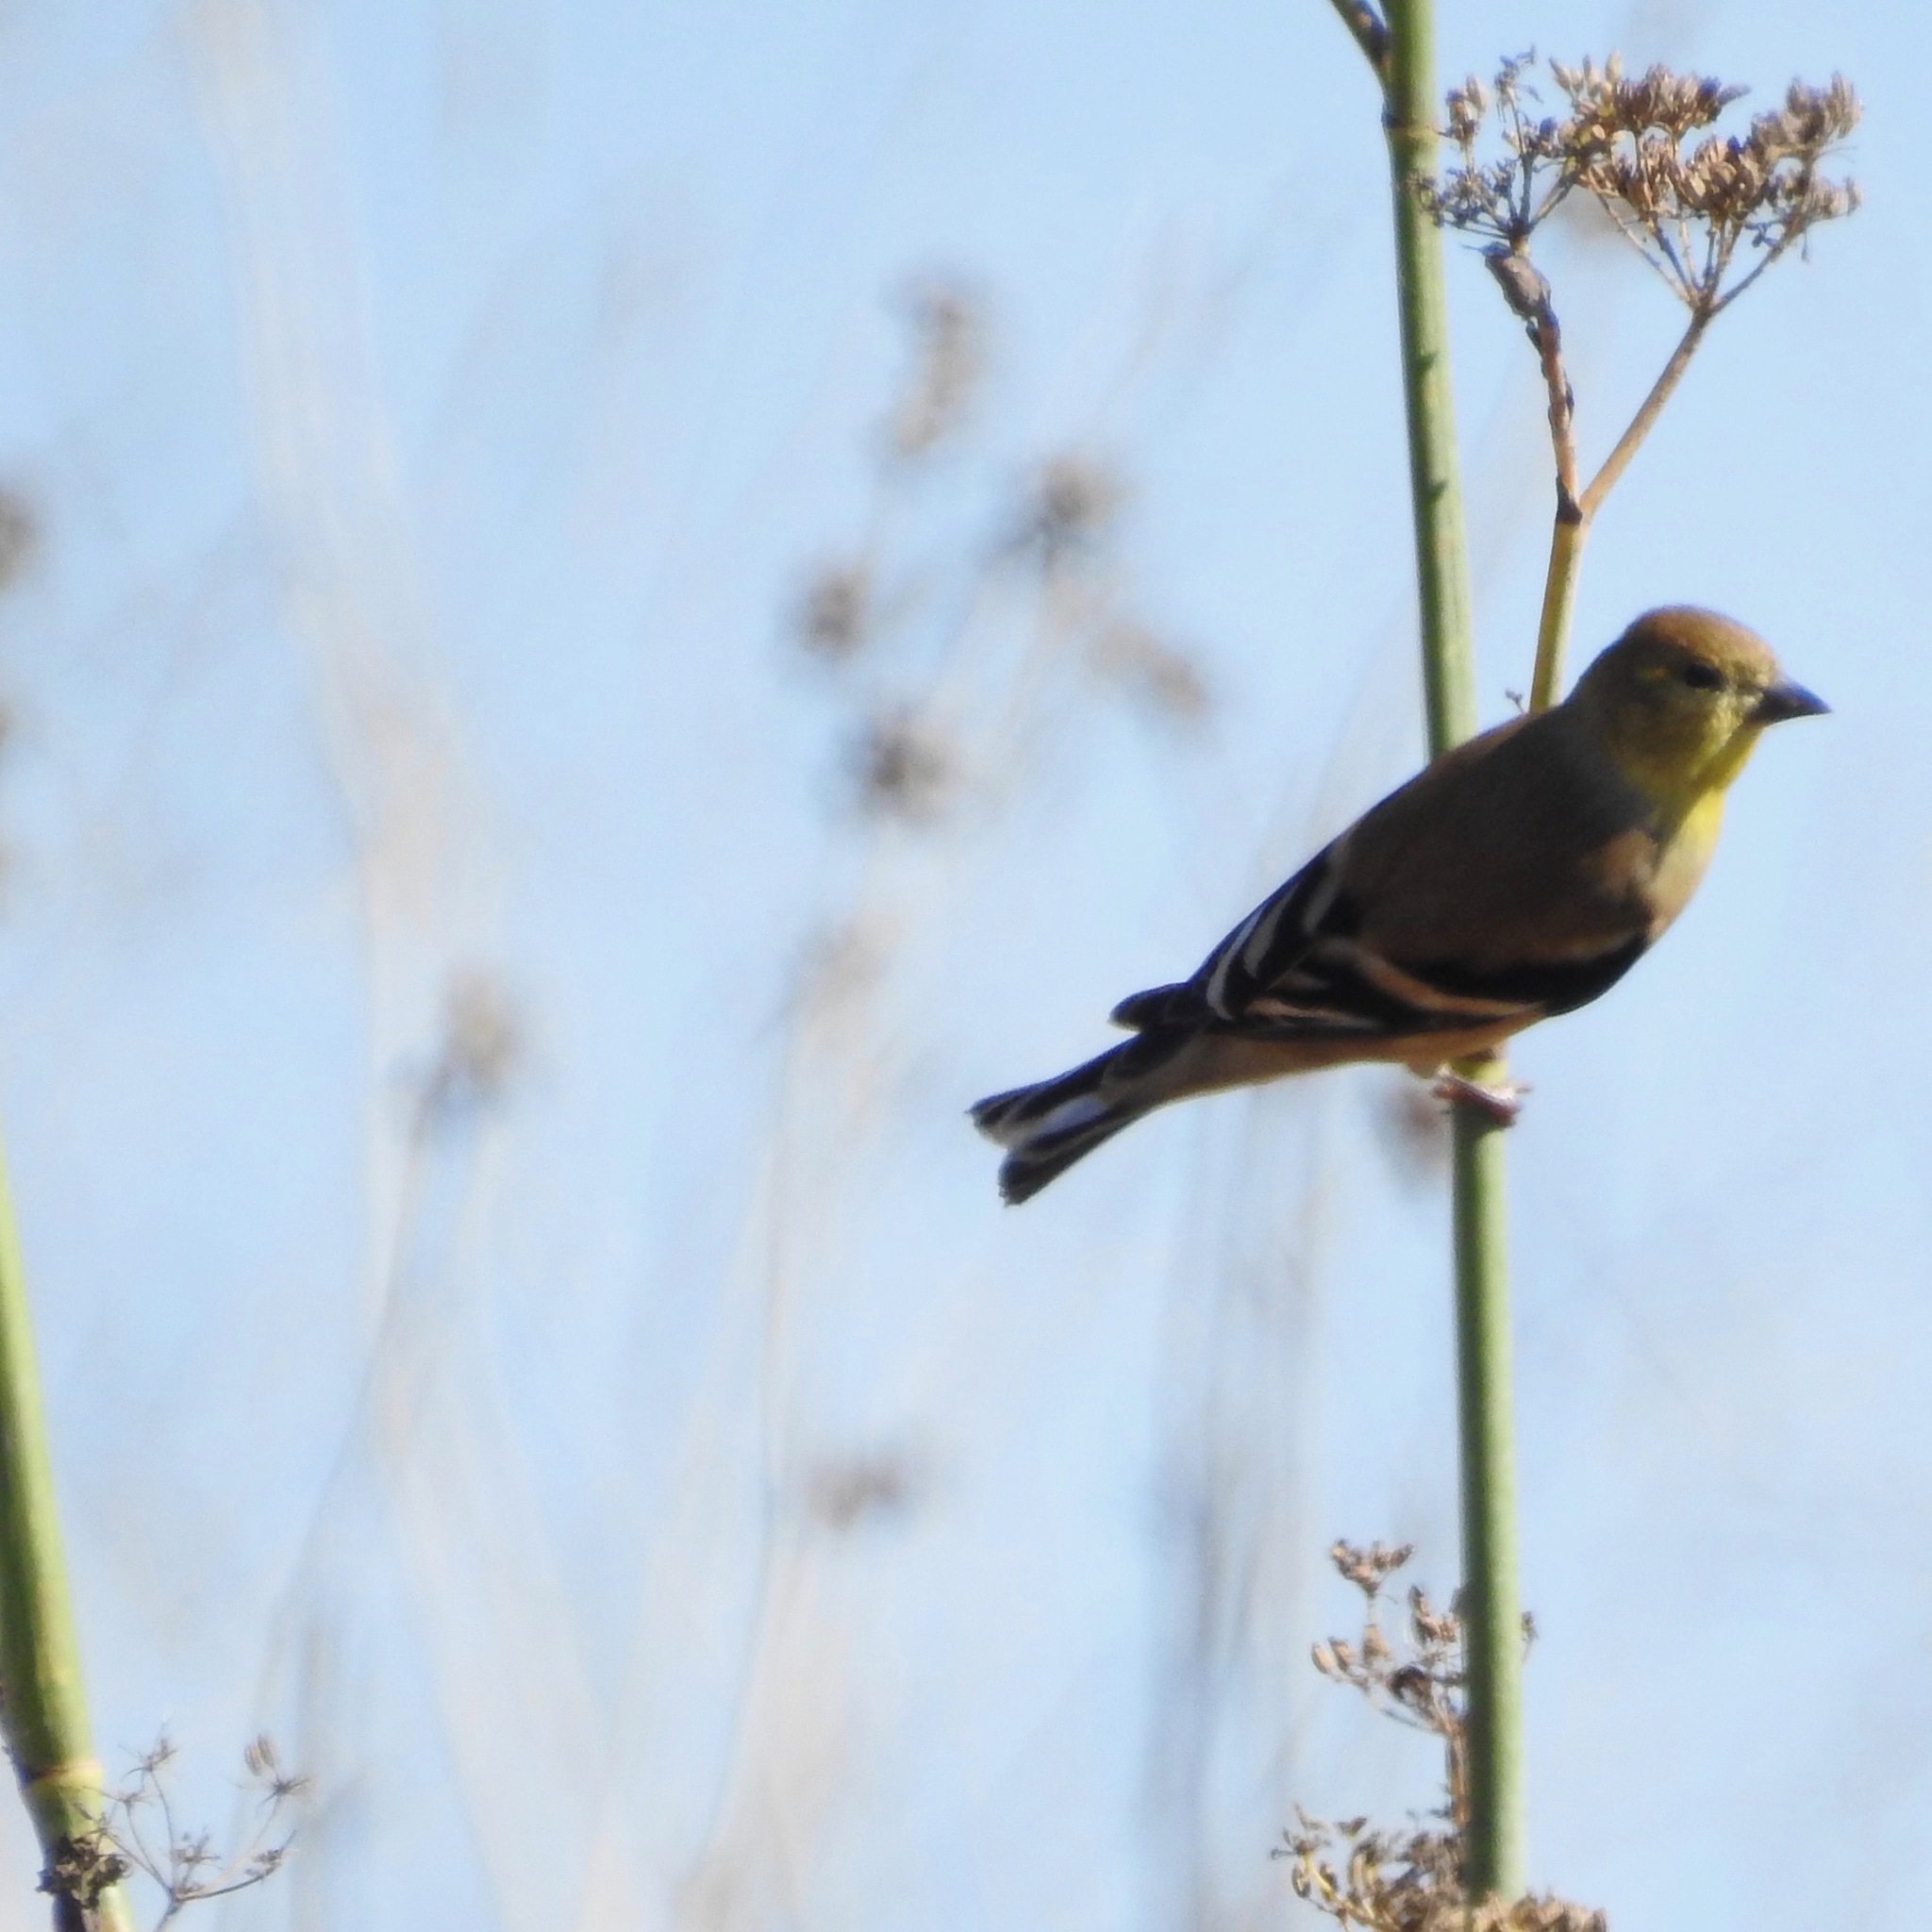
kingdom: Animalia
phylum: Chordata
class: Aves
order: Passeriformes
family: Fringillidae
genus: Spinus
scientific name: Spinus psaltria
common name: Lesser goldfinch
